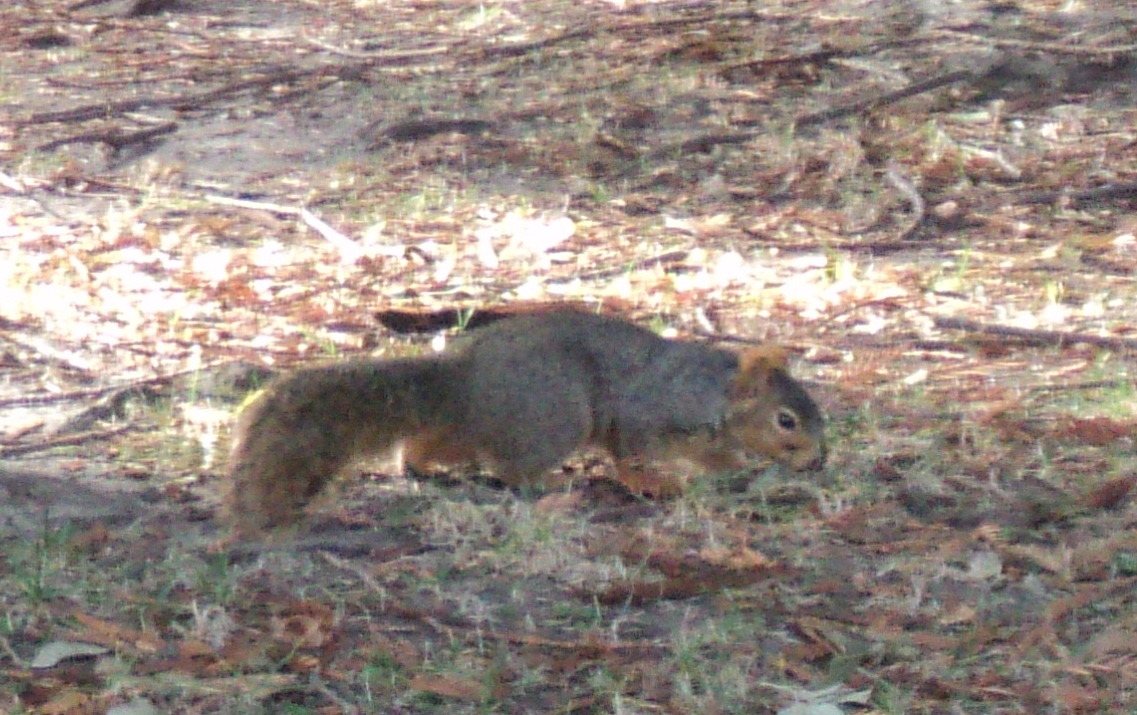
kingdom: Animalia
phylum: Chordata
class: Mammalia
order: Rodentia
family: Sciuridae
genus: Sciurus
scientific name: Sciurus niger
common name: Fox squirrel
